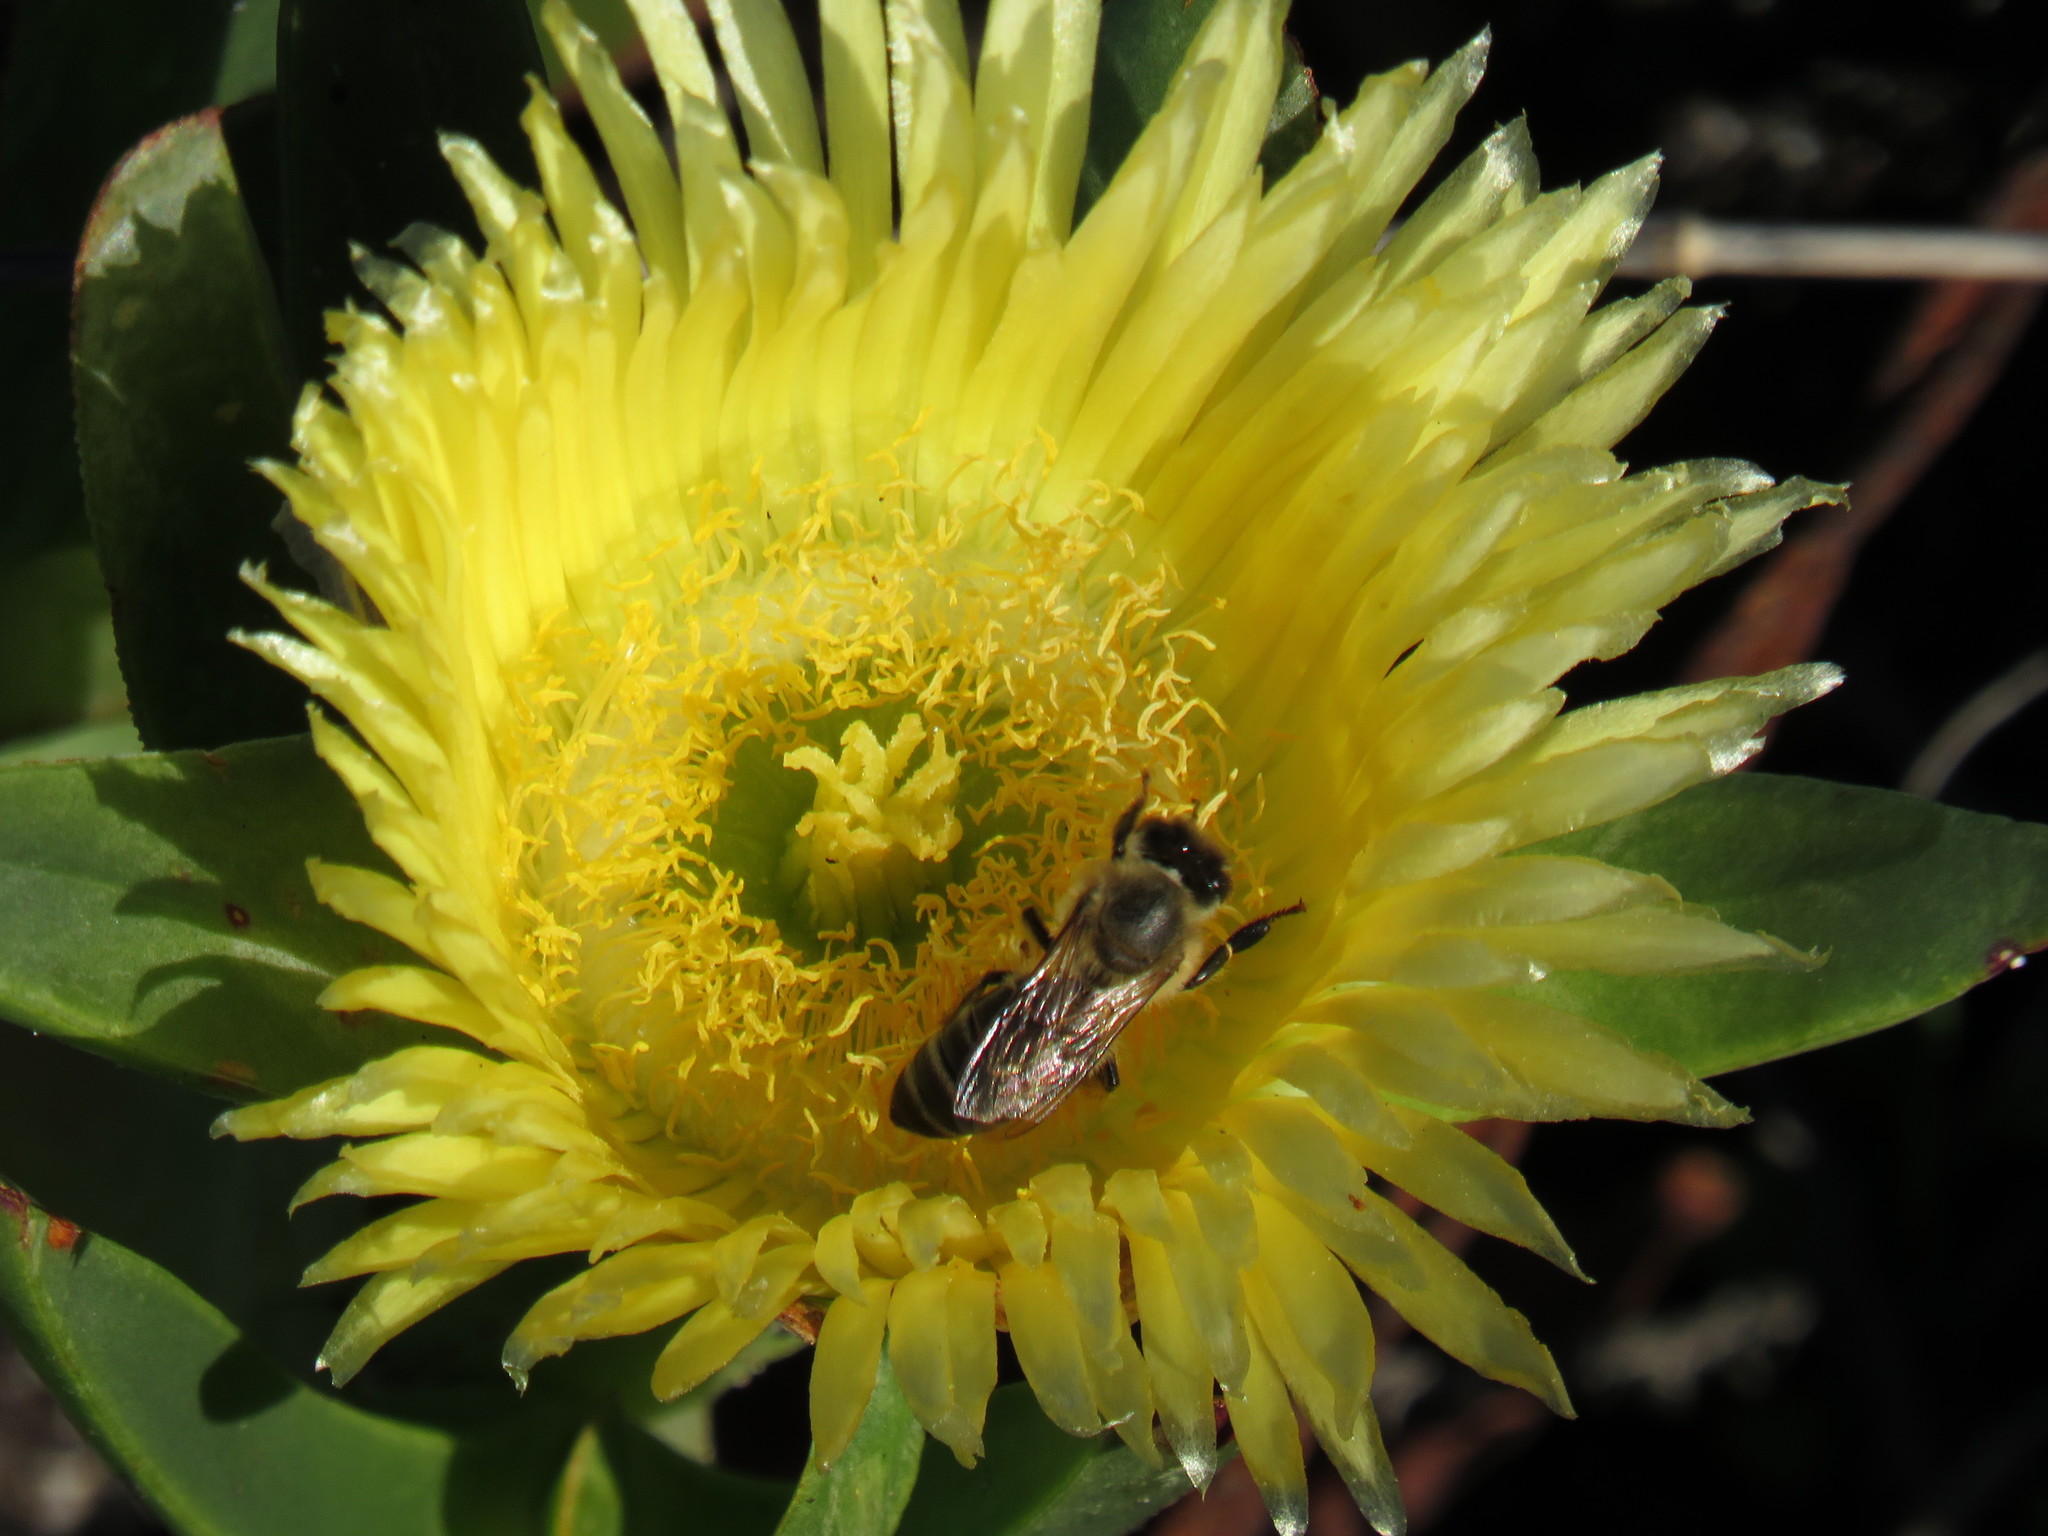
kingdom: Plantae
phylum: Tracheophyta
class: Magnoliopsida
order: Caryophyllales
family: Aizoaceae
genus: Carpobrotus
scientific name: Carpobrotus edulis
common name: Hottentot-fig
